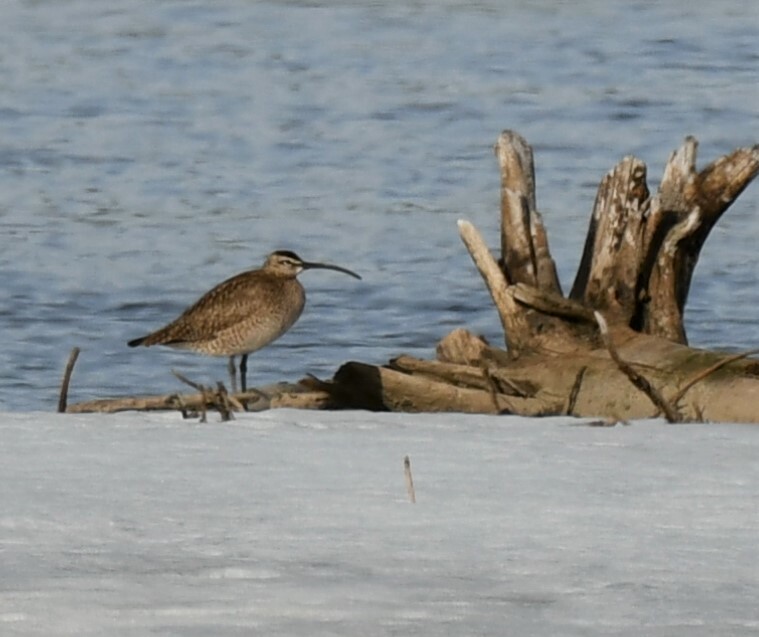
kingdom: Animalia
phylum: Chordata
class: Aves
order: Charadriiformes
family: Scolopacidae
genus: Numenius
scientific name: Numenius phaeopus
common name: Whimbrel
